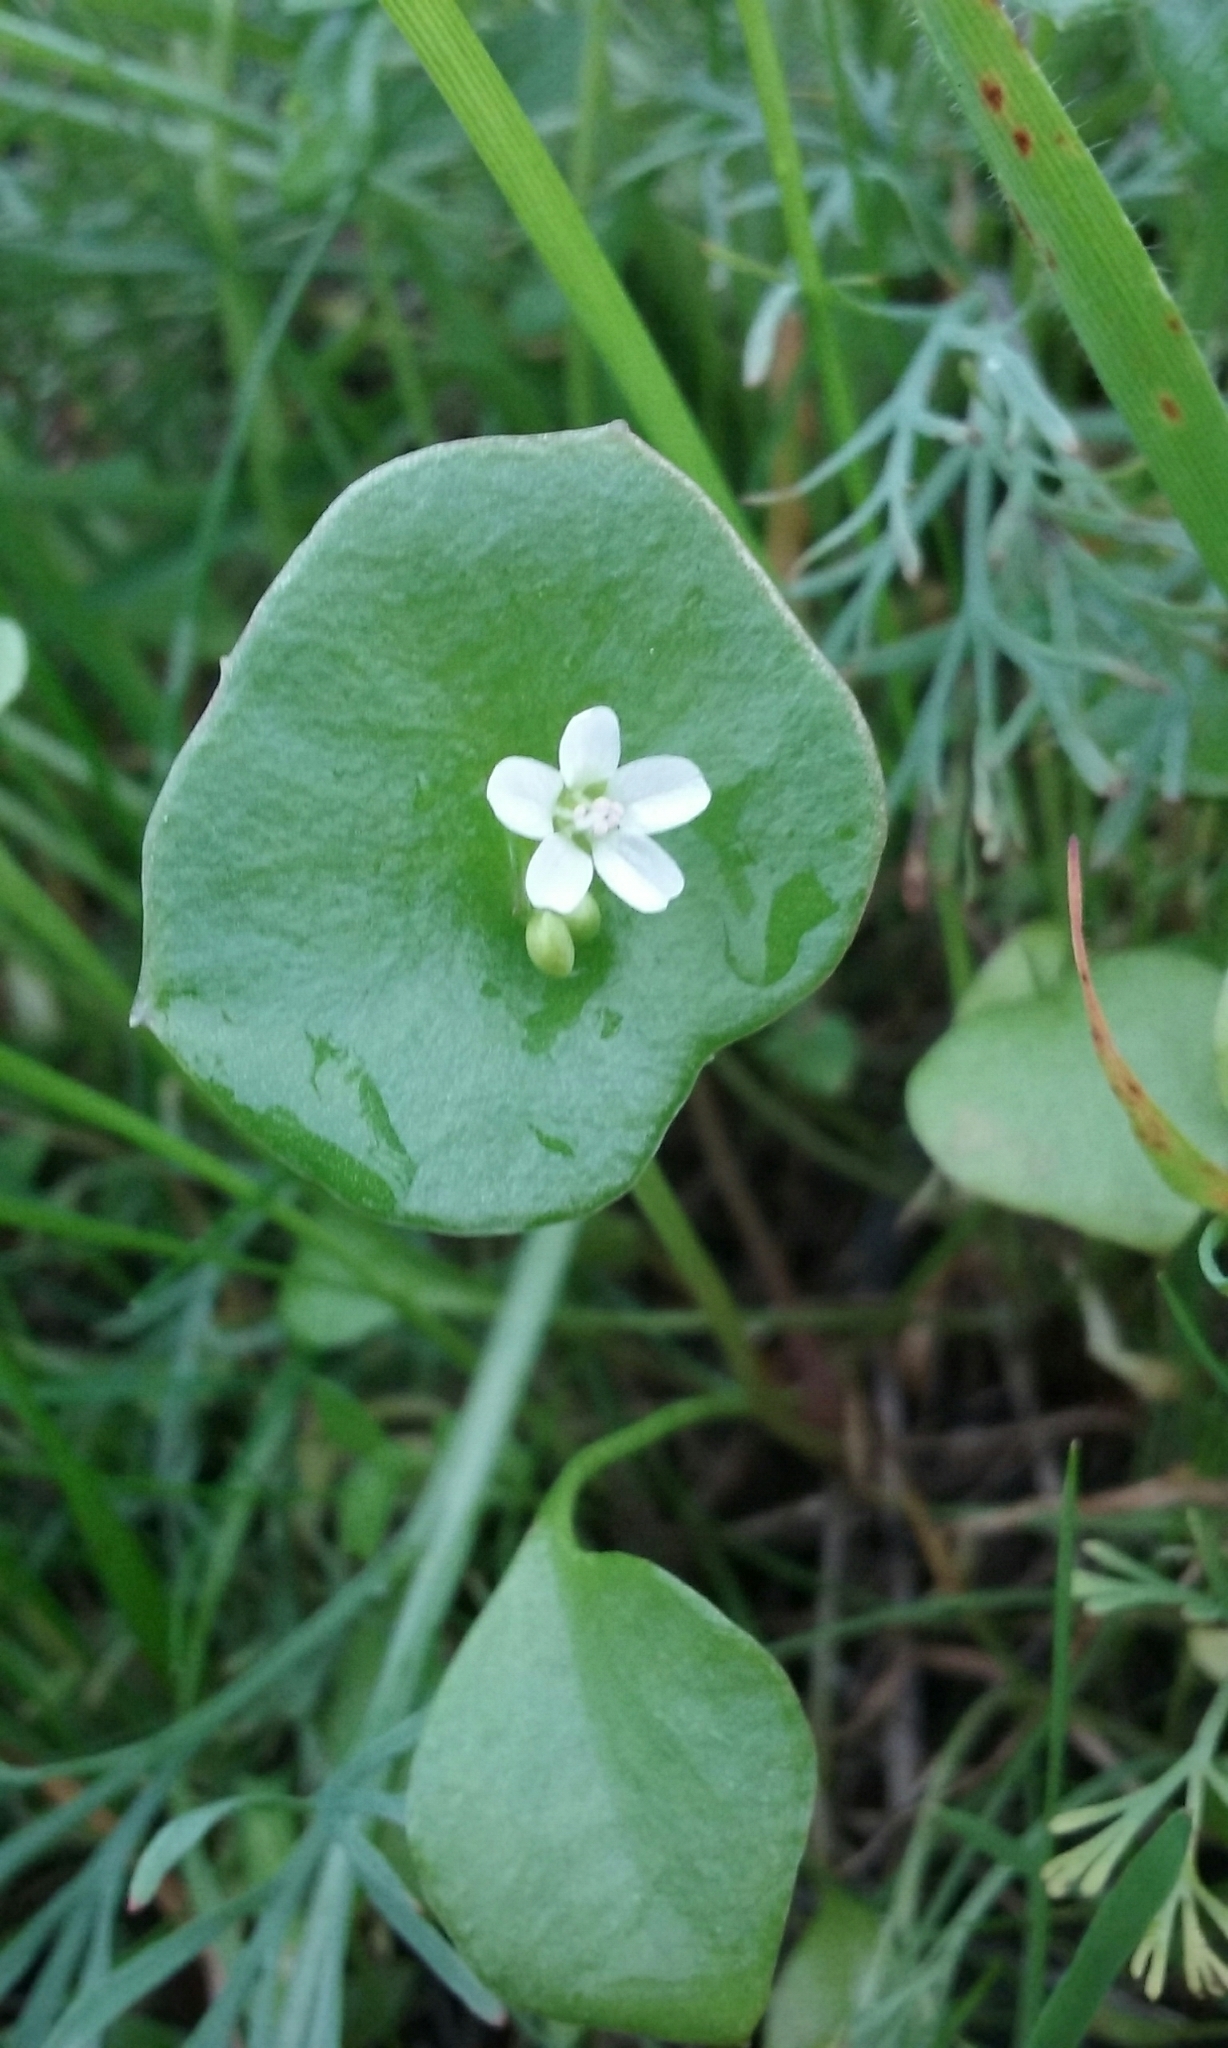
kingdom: Plantae
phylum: Tracheophyta
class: Magnoliopsida
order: Caryophyllales
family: Montiaceae
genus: Claytonia
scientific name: Claytonia perfoliata
